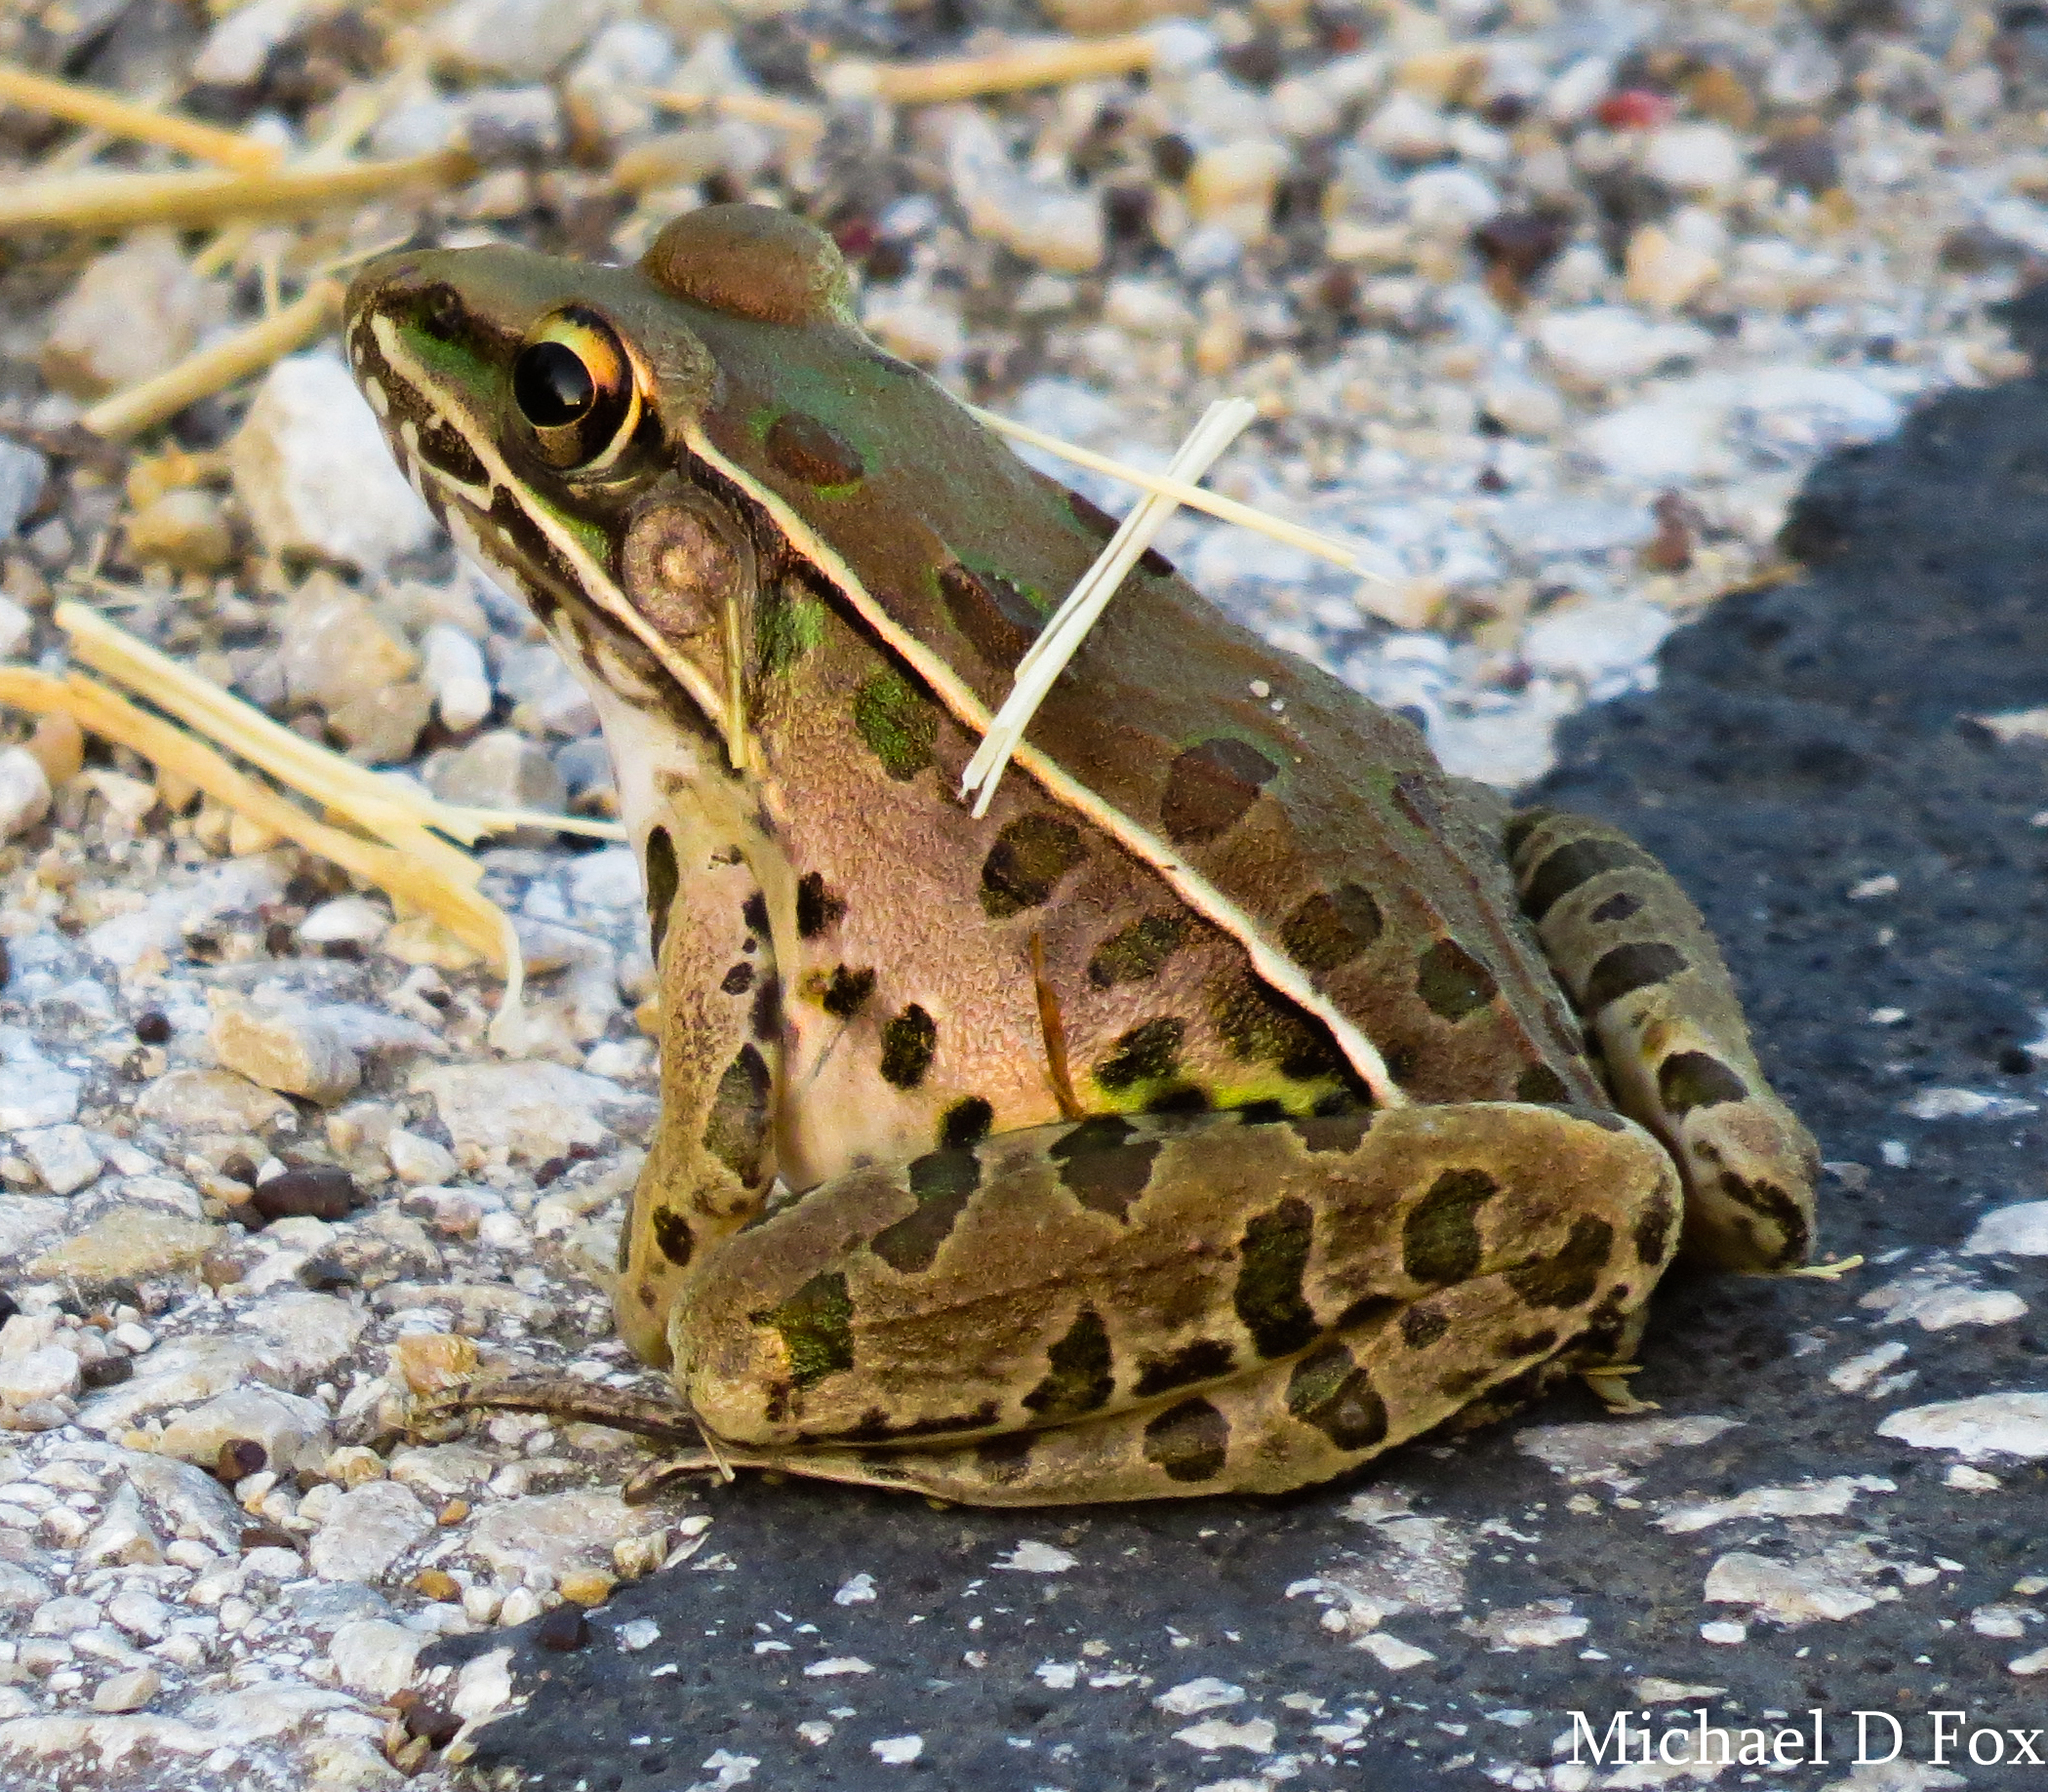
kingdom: Animalia
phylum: Chordata
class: Amphibia
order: Anura
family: Ranidae
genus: Lithobates
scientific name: Lithobates sphenocephalus
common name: Southern leopard frog
